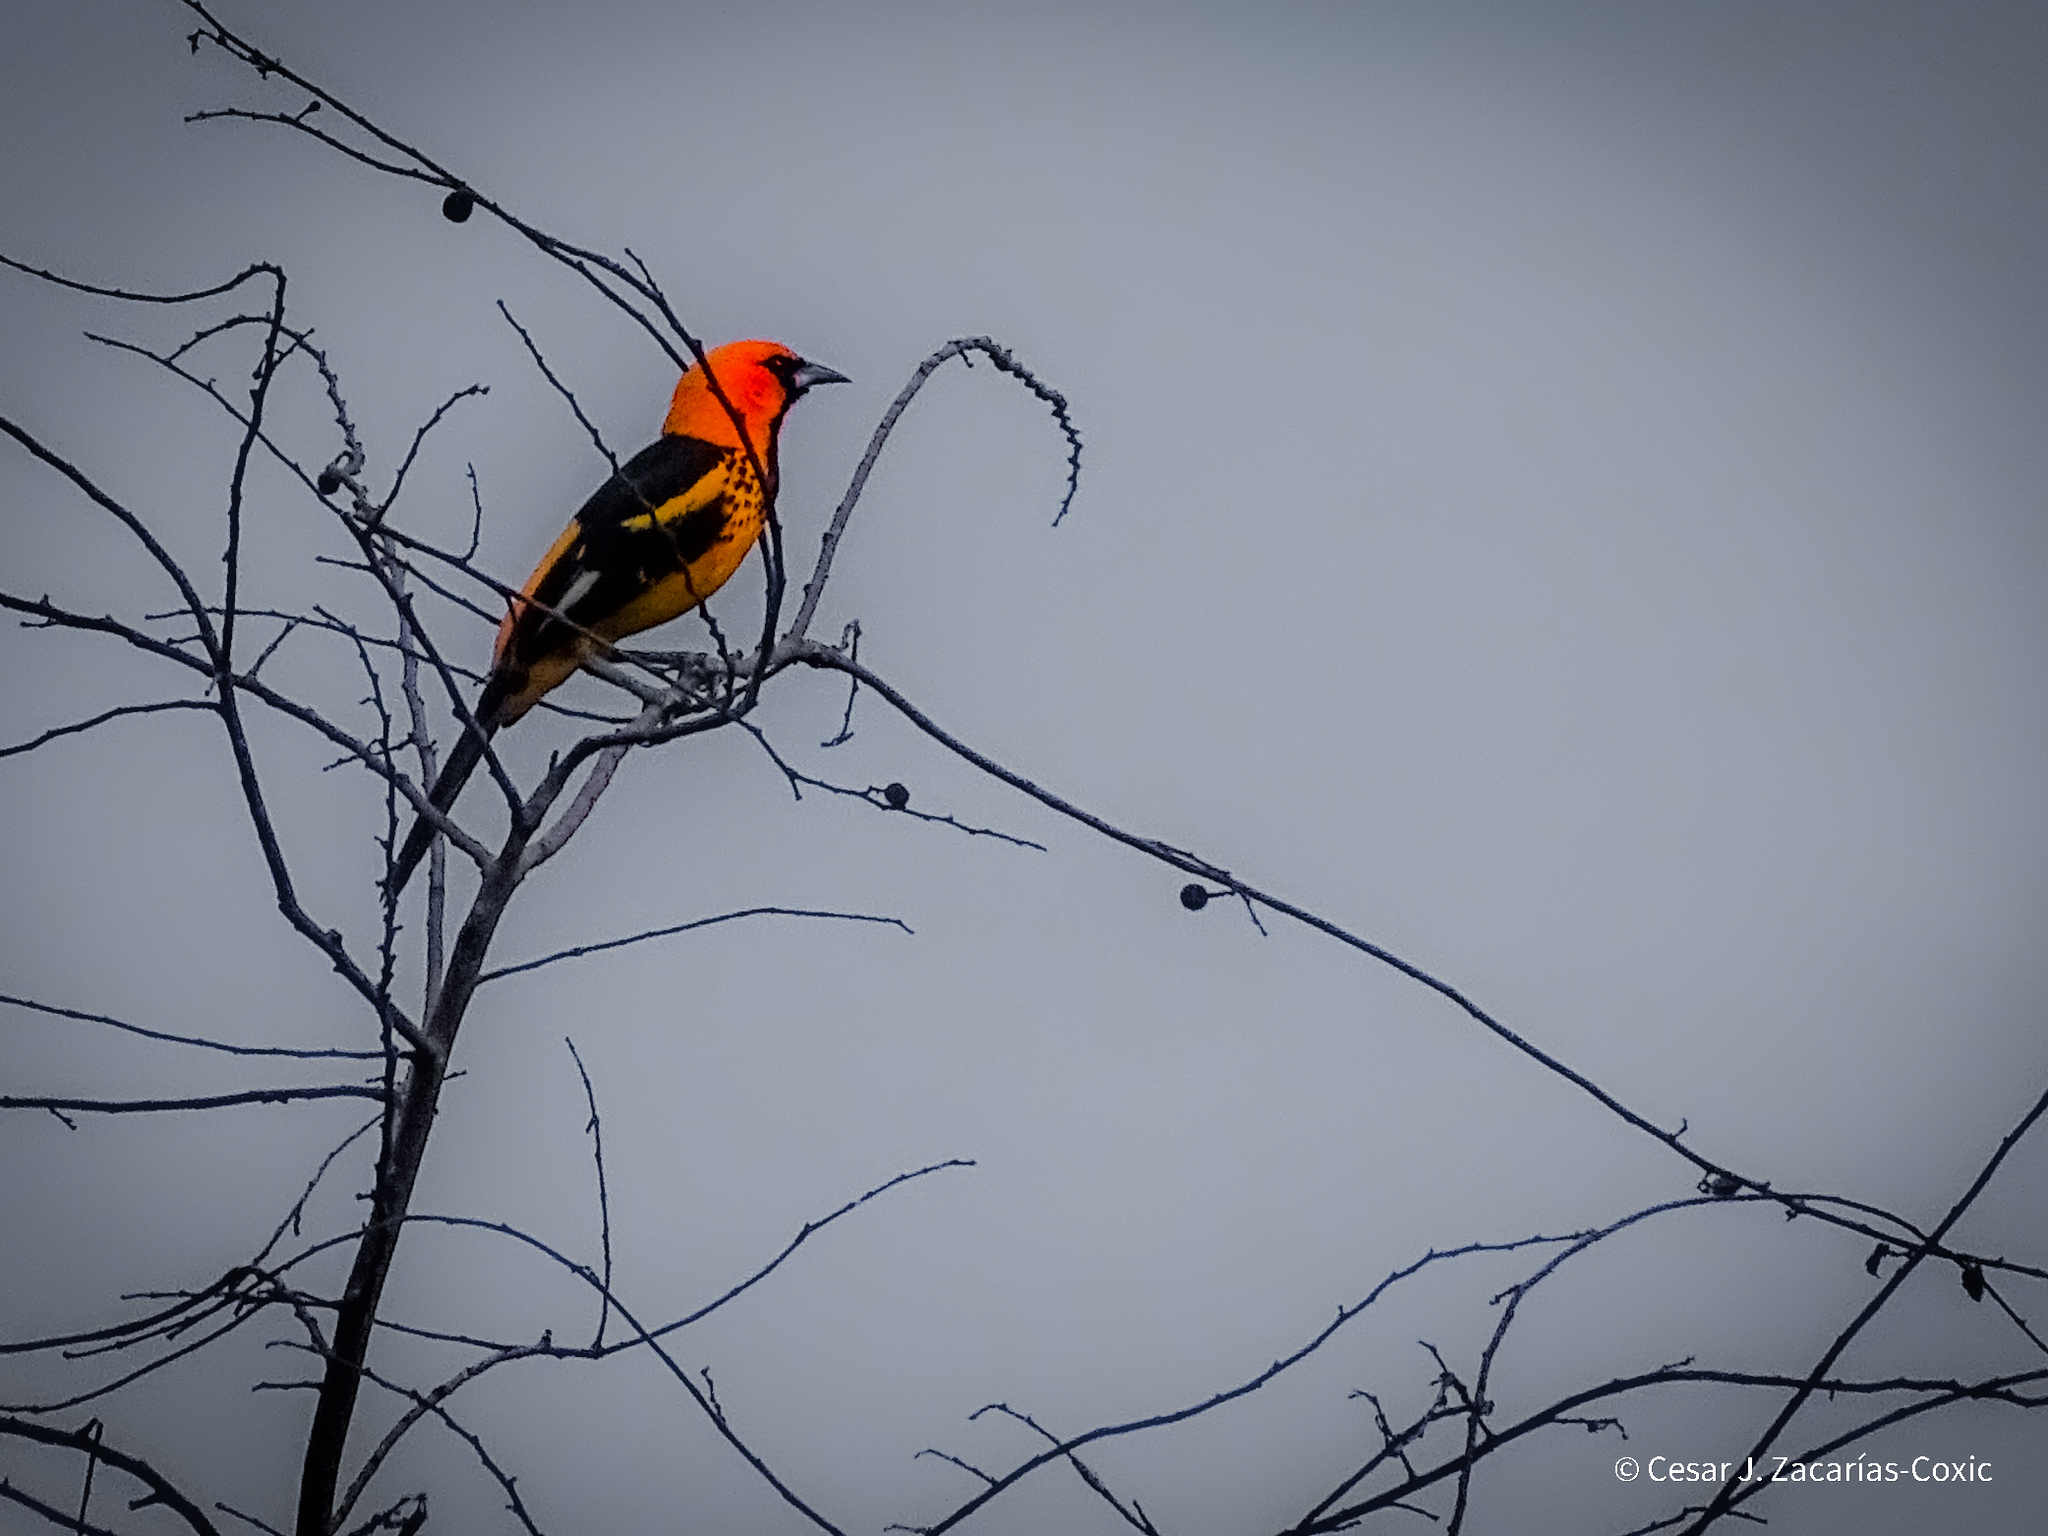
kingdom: Animalia
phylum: Chordata
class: Aves
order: Passeriformes
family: Icteridae
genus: Icterus
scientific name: Icterus pectoralis
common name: Spot-breasted oriole
